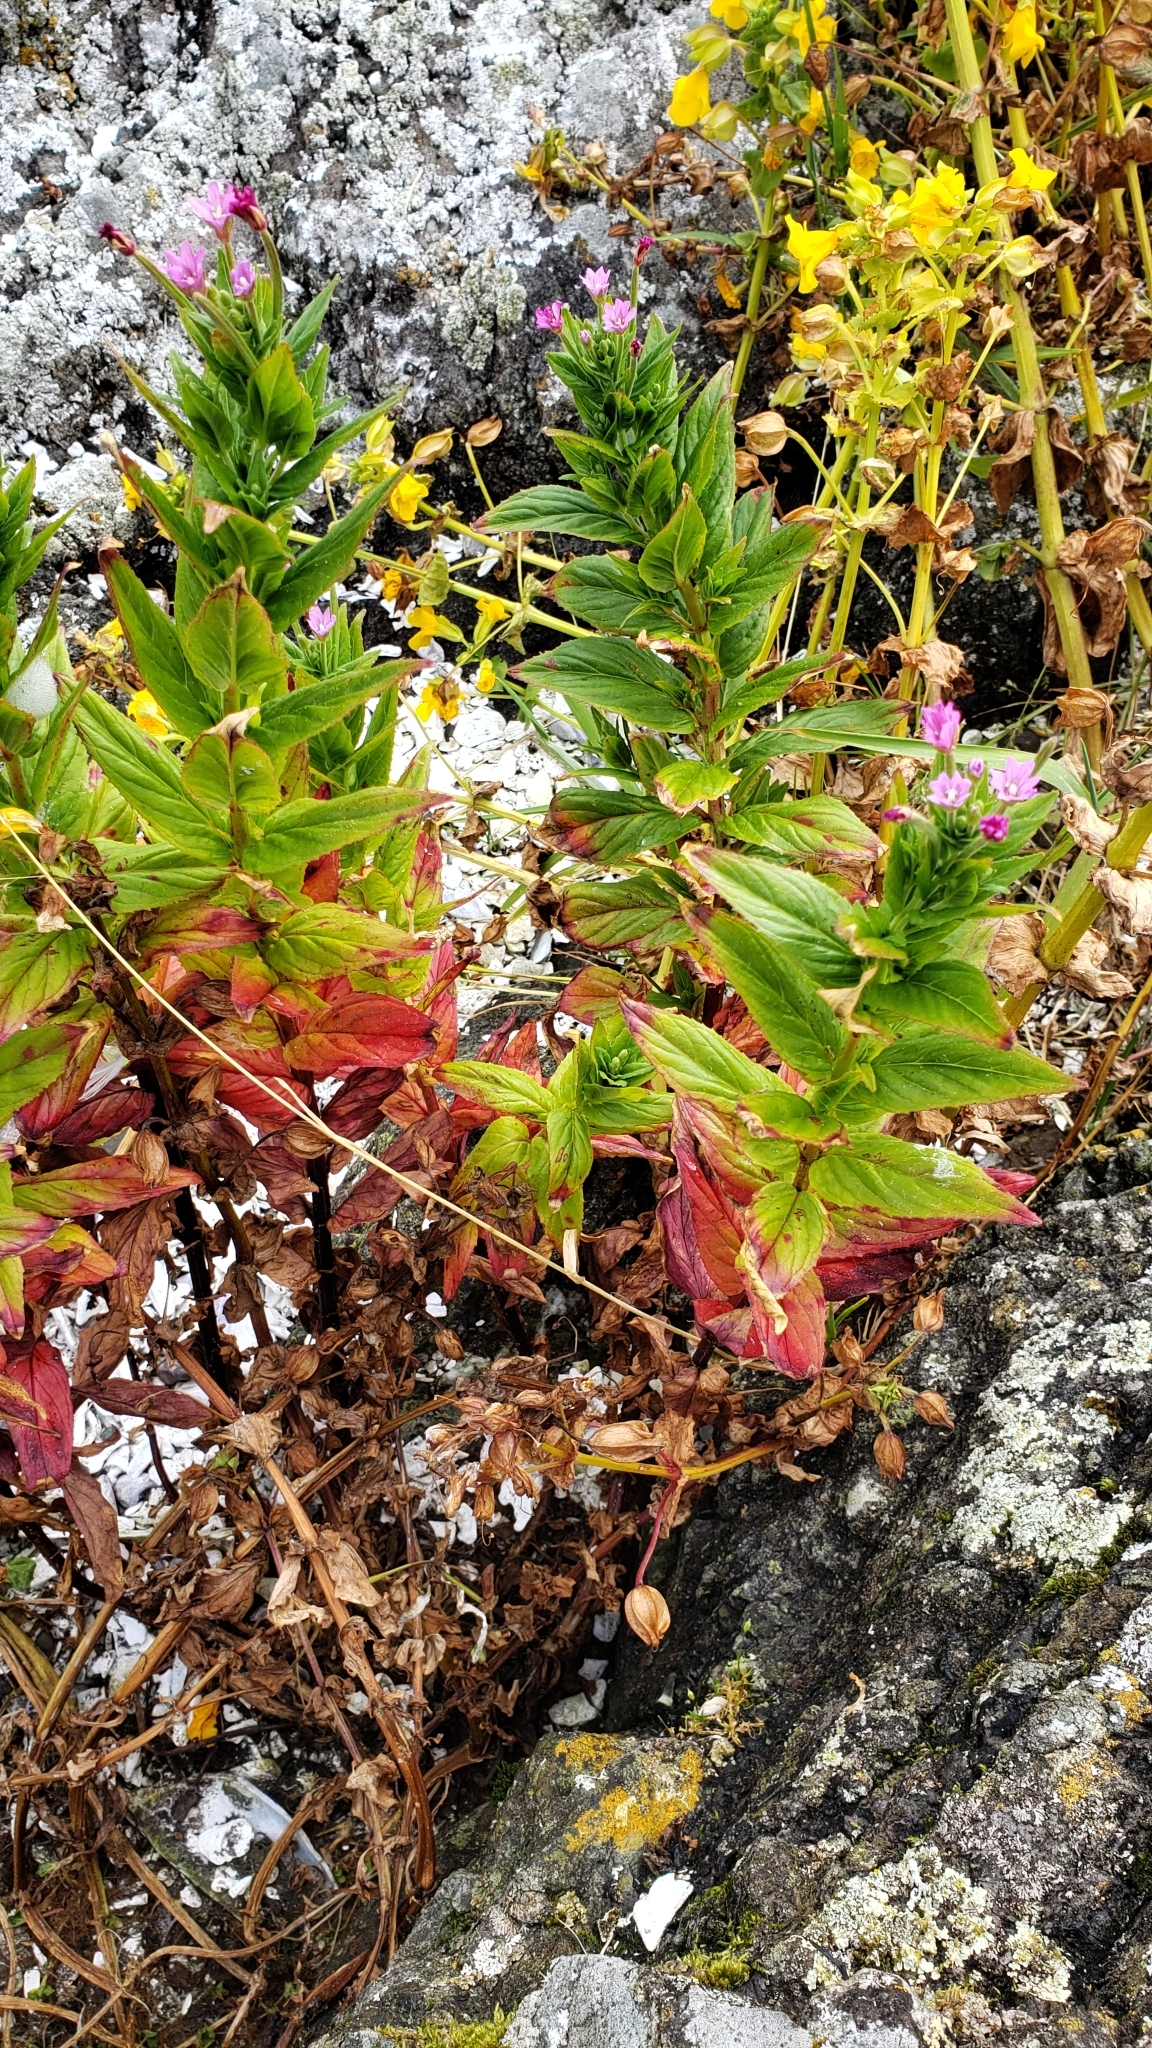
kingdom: Plantae
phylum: Tracheophyta
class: Magnoliopsida
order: Myrtales
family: Onagraceae
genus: Epilobium
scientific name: Epilobium ciliatum
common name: American willowherb
